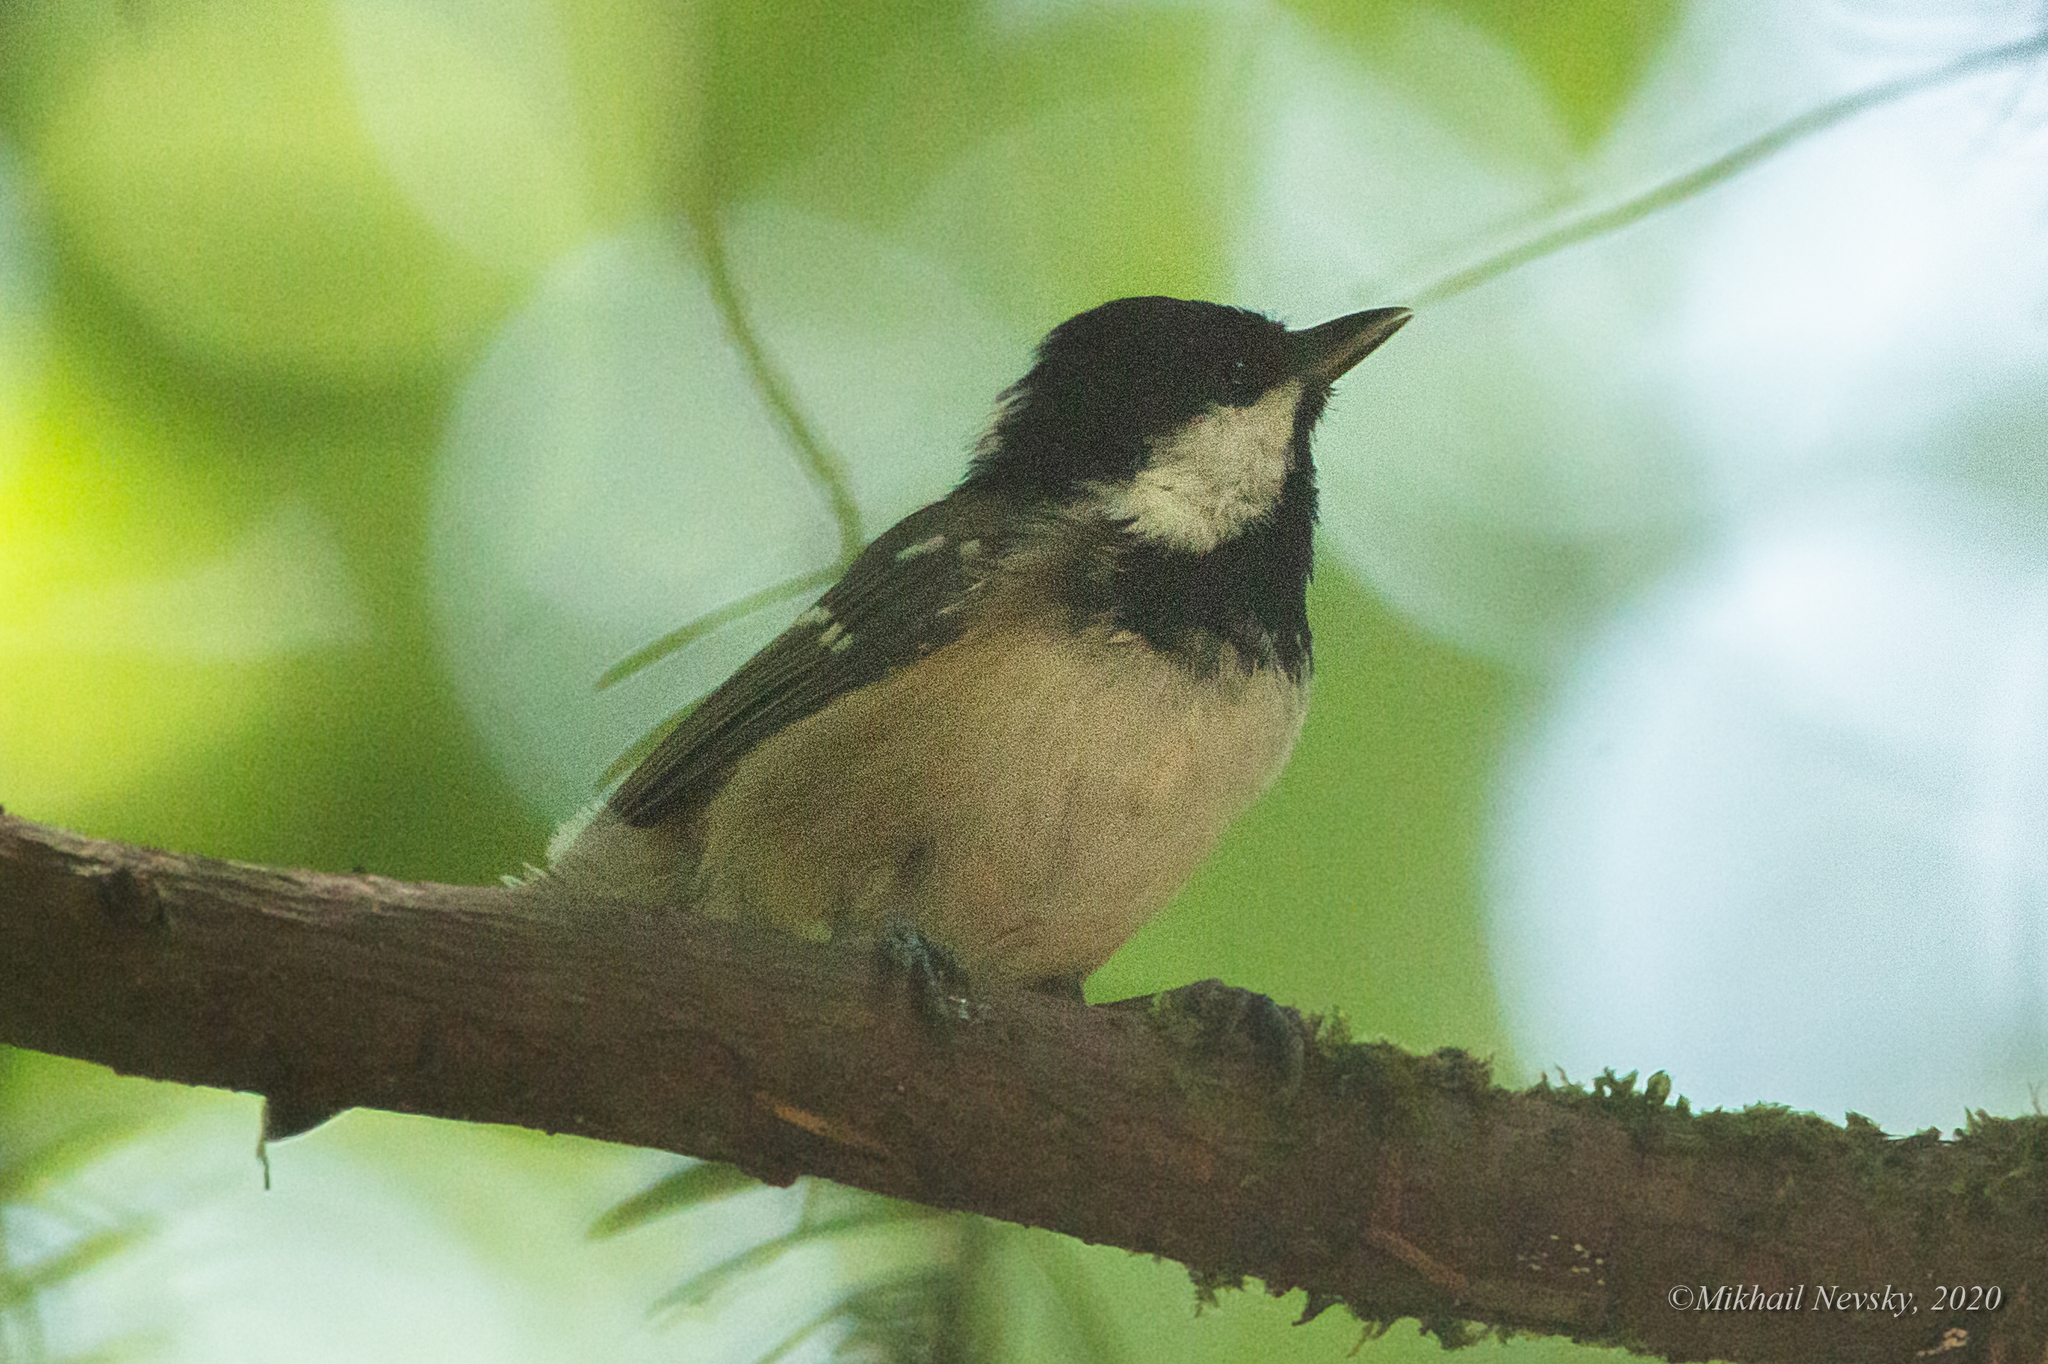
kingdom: Animalia
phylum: Chordata
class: Aves
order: Passeriformes
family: Paridae
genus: Periparus
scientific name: Periparus ater
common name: Coal tit
